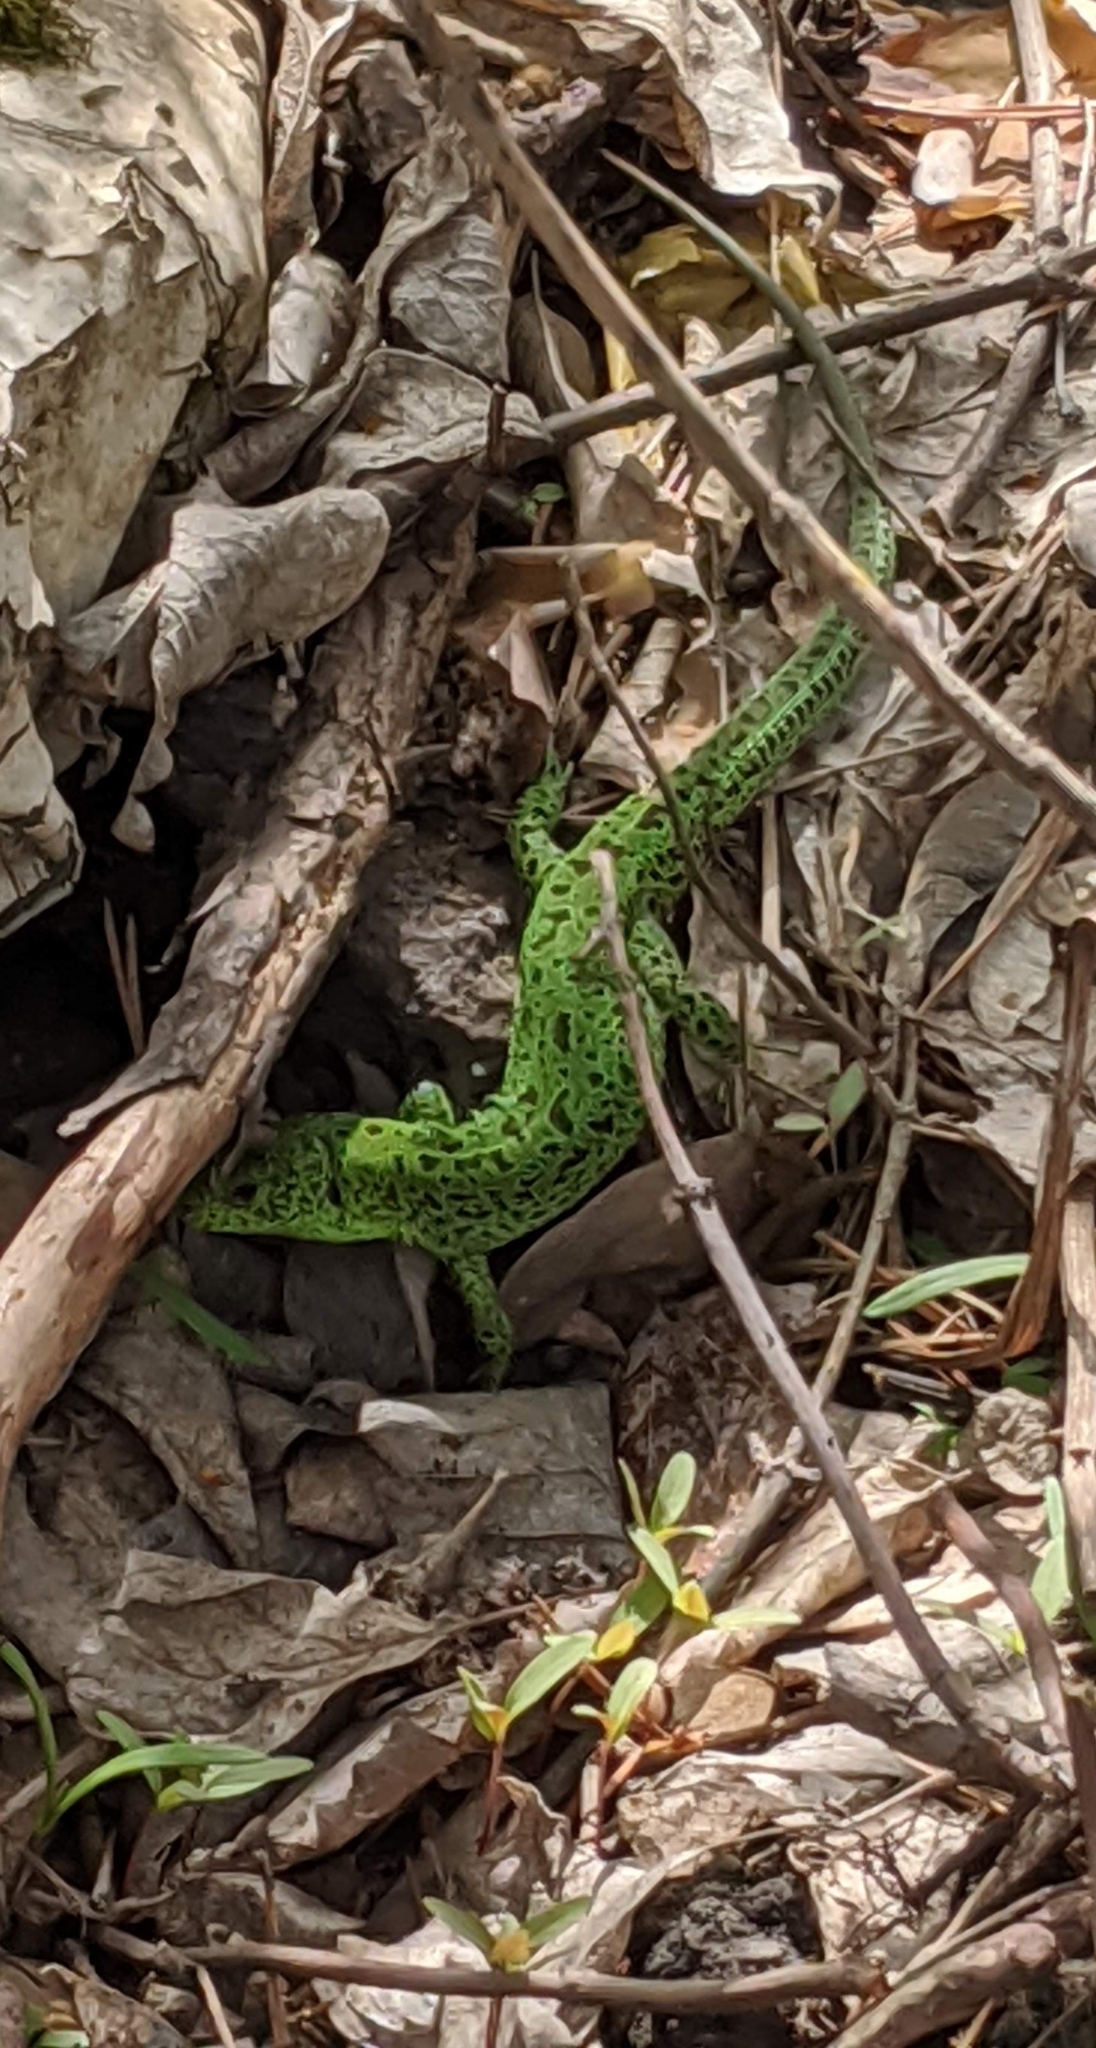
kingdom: Animalia
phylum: Chordata
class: Squamata
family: Lacertidae
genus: Lacerta
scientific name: Lacerta agilis
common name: Sand lizard
